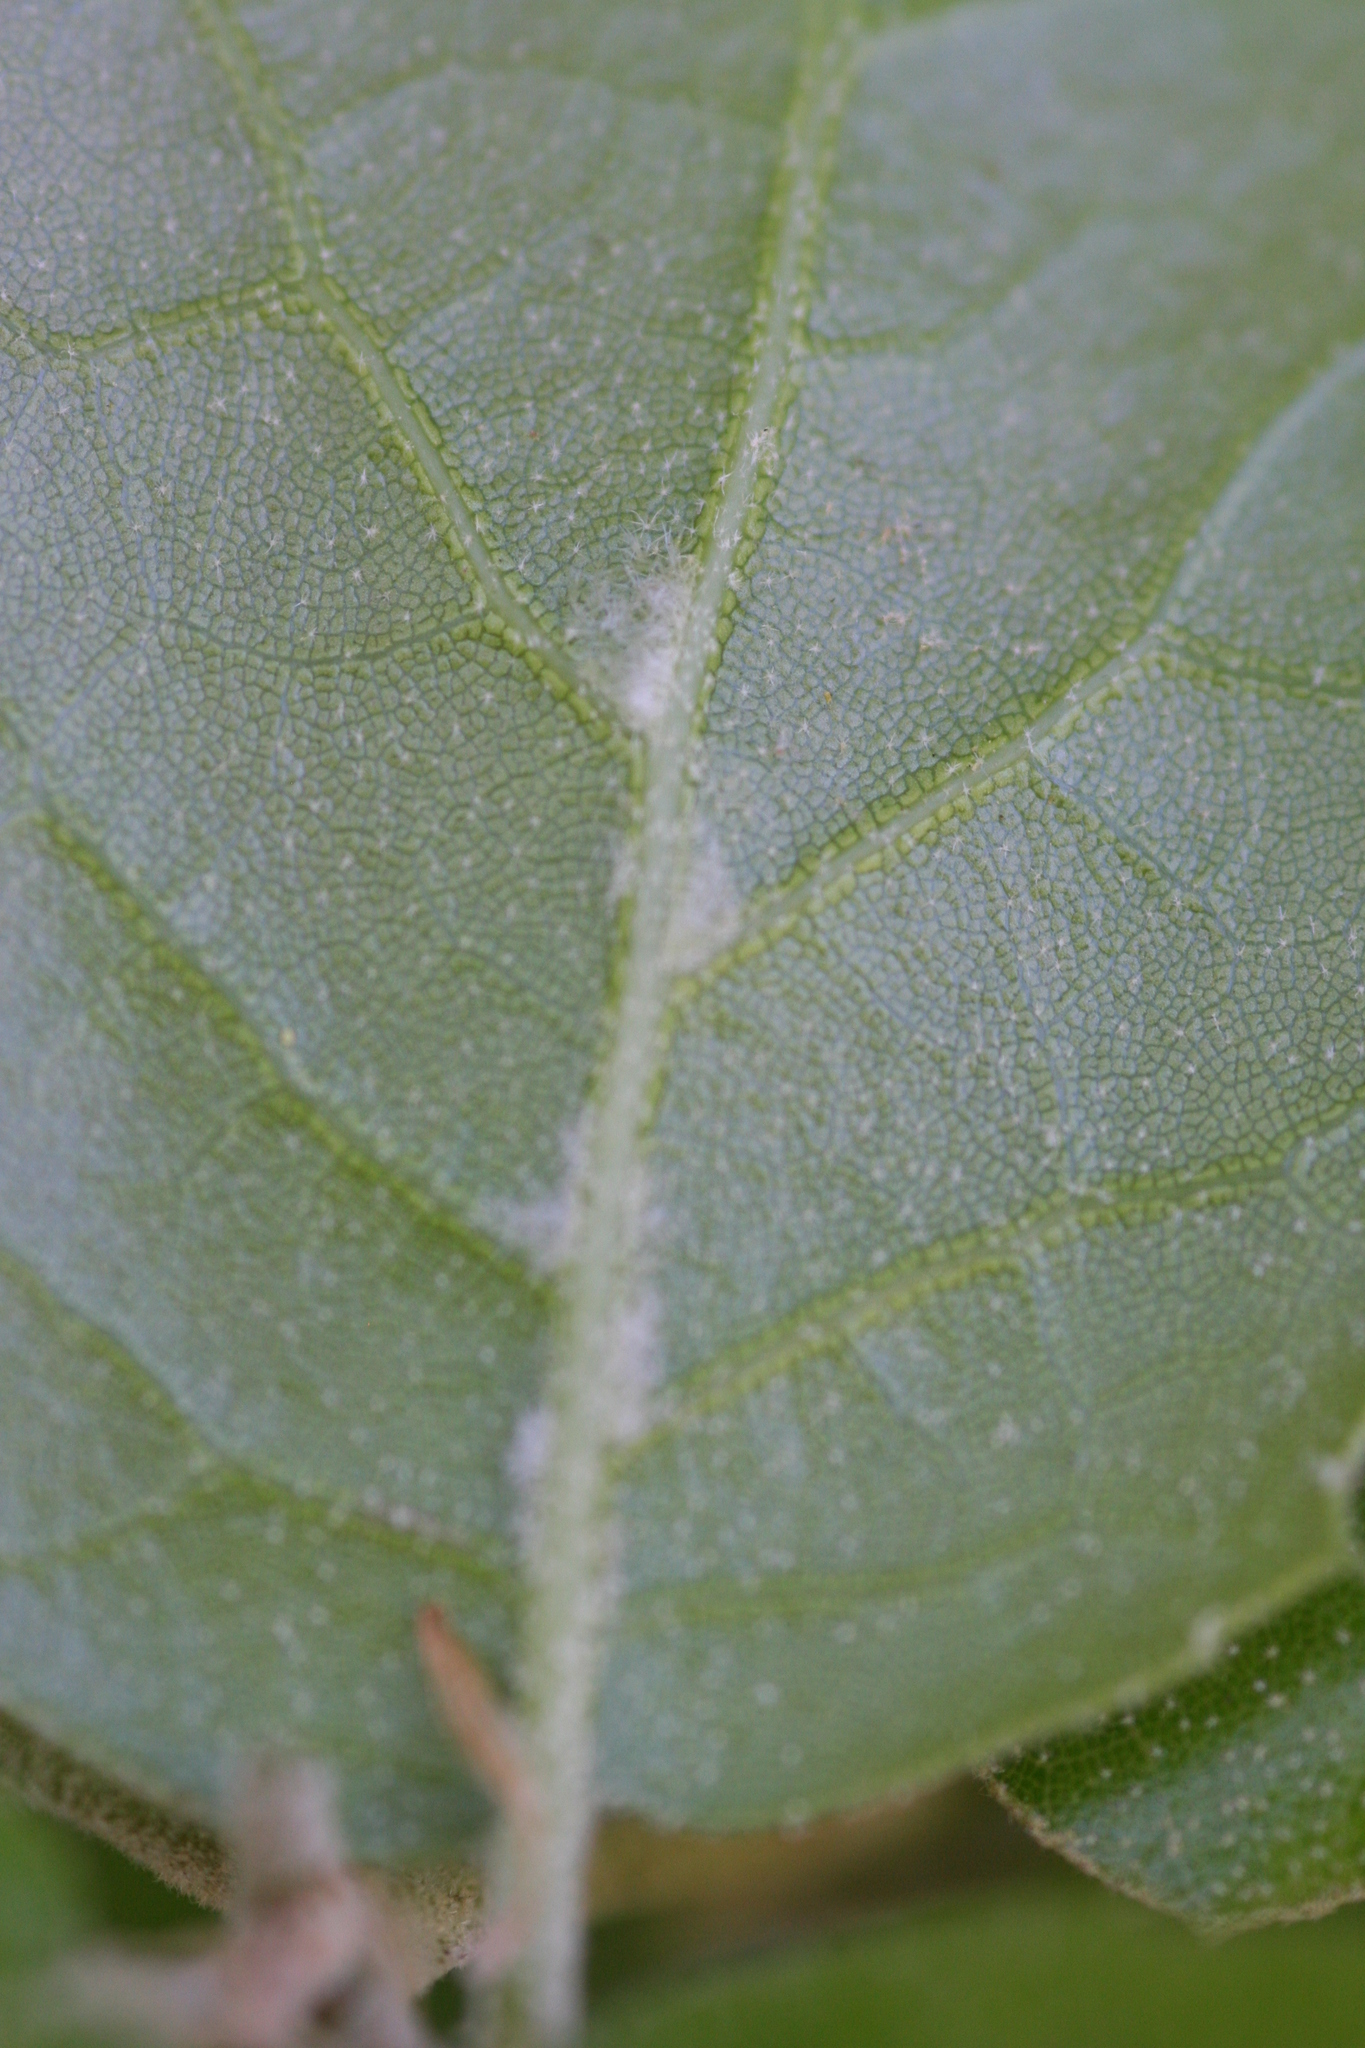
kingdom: Plantae
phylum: Tracheophyta
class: Magnoliopsida
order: Fagales
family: Fagaceae
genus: Quercus
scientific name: Quercus agrifolia
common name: California live oak
